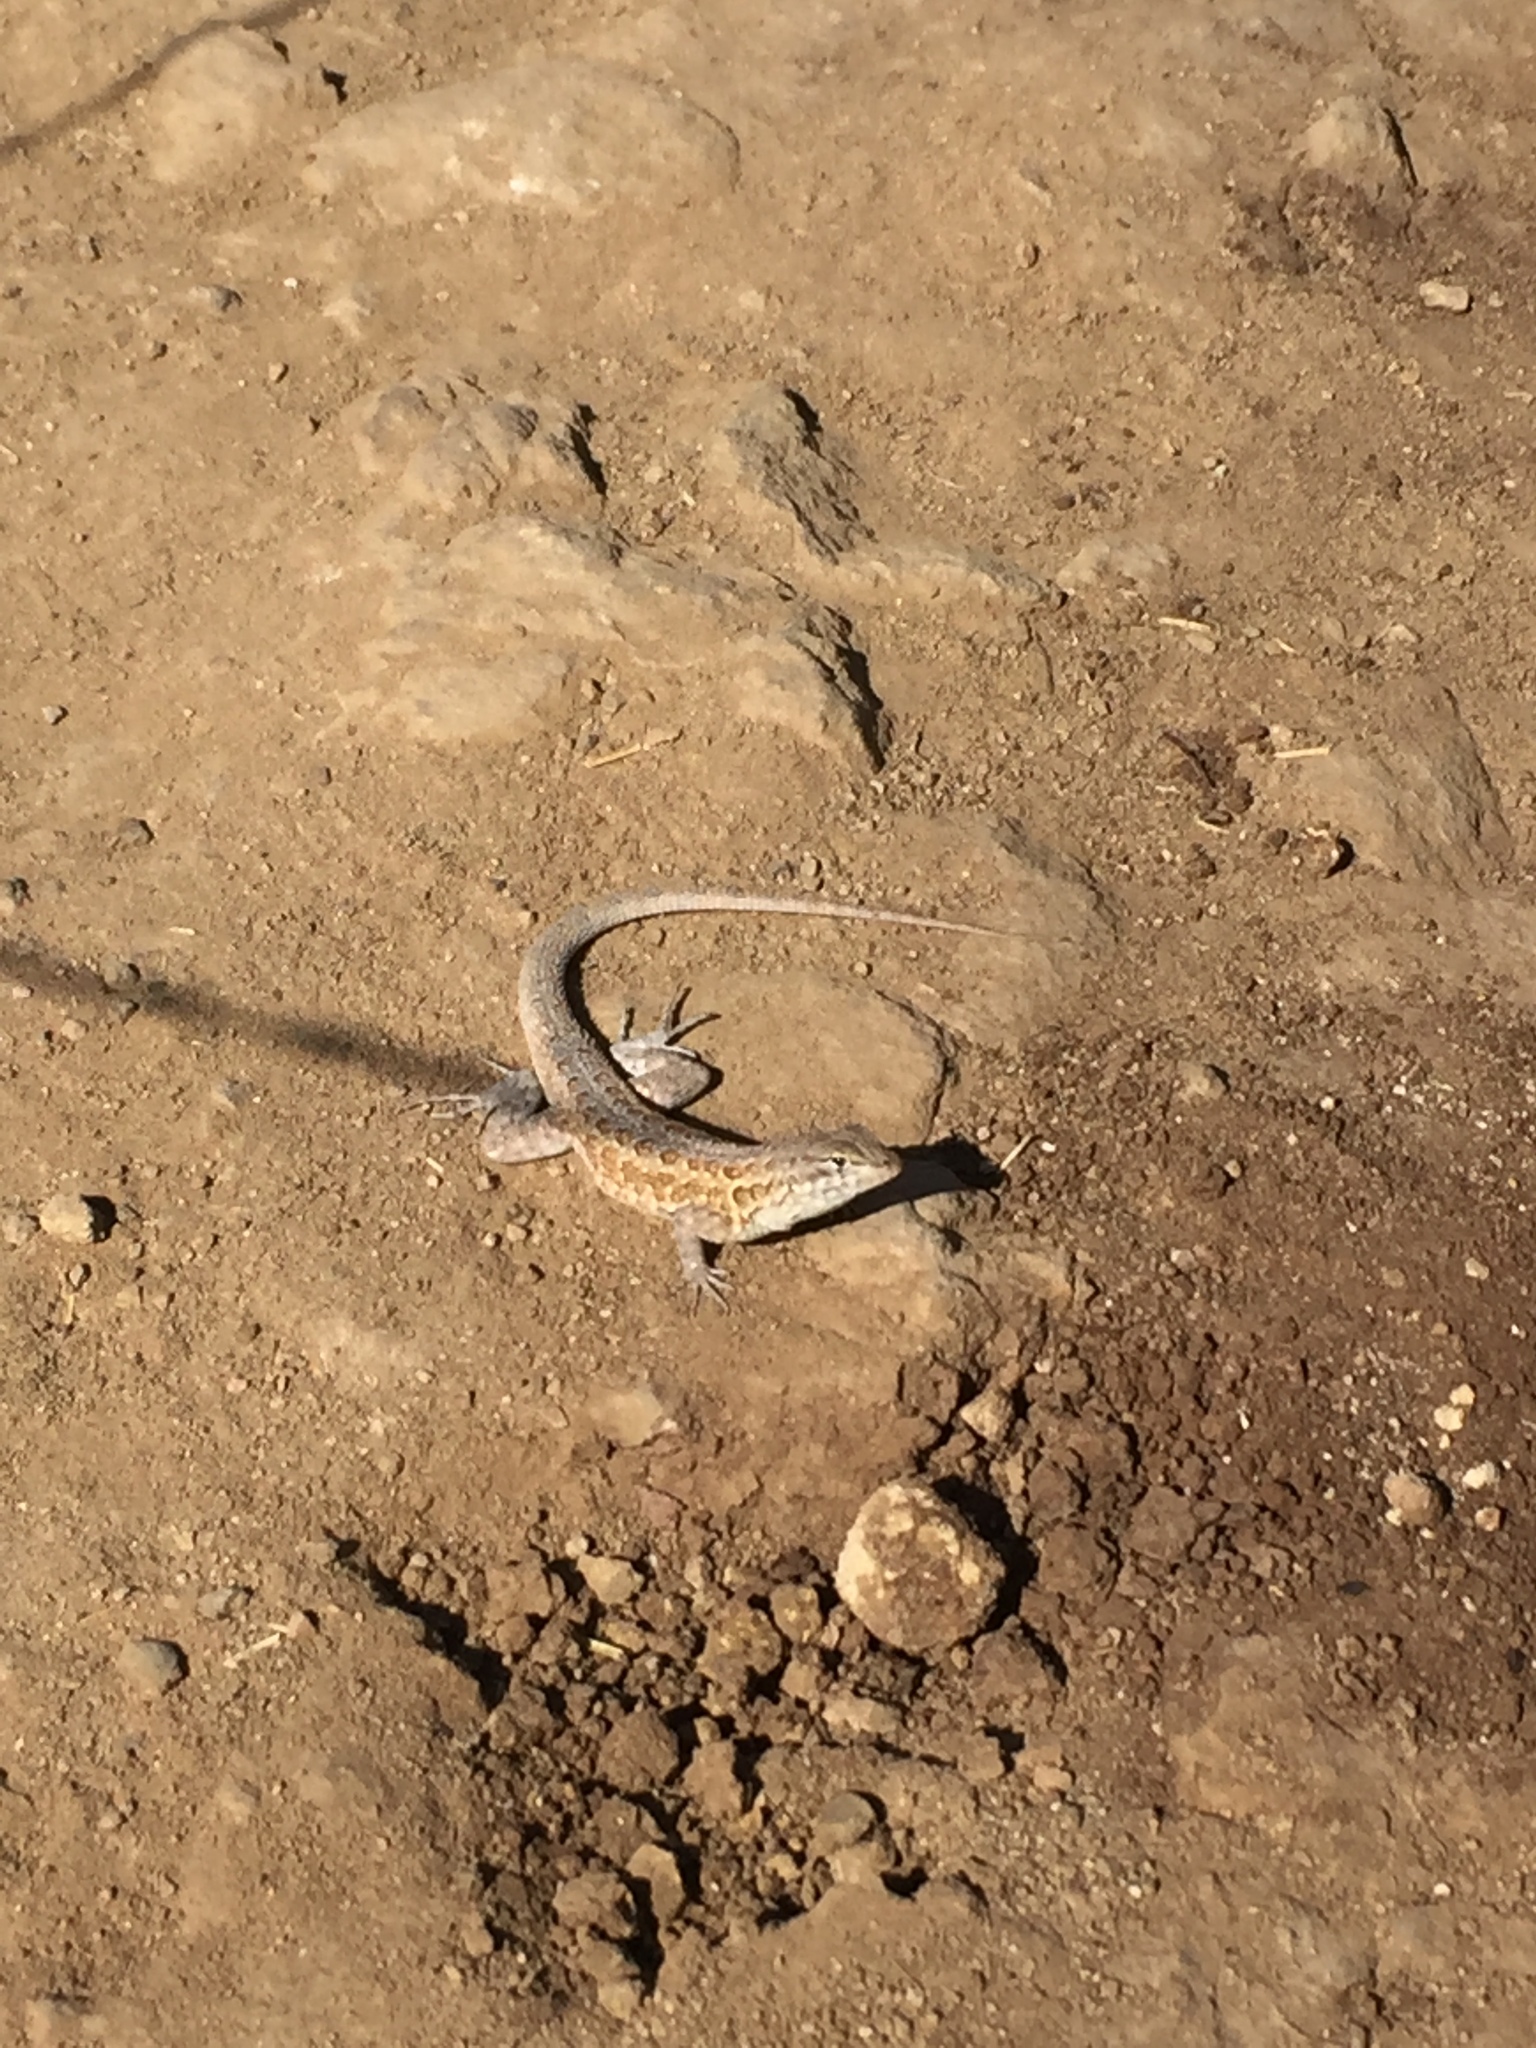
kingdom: Animalia
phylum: Chordata
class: Squamata
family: Phrynosomatidae
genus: Uta
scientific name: Uta stansburiana
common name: Side-blotched lizard
